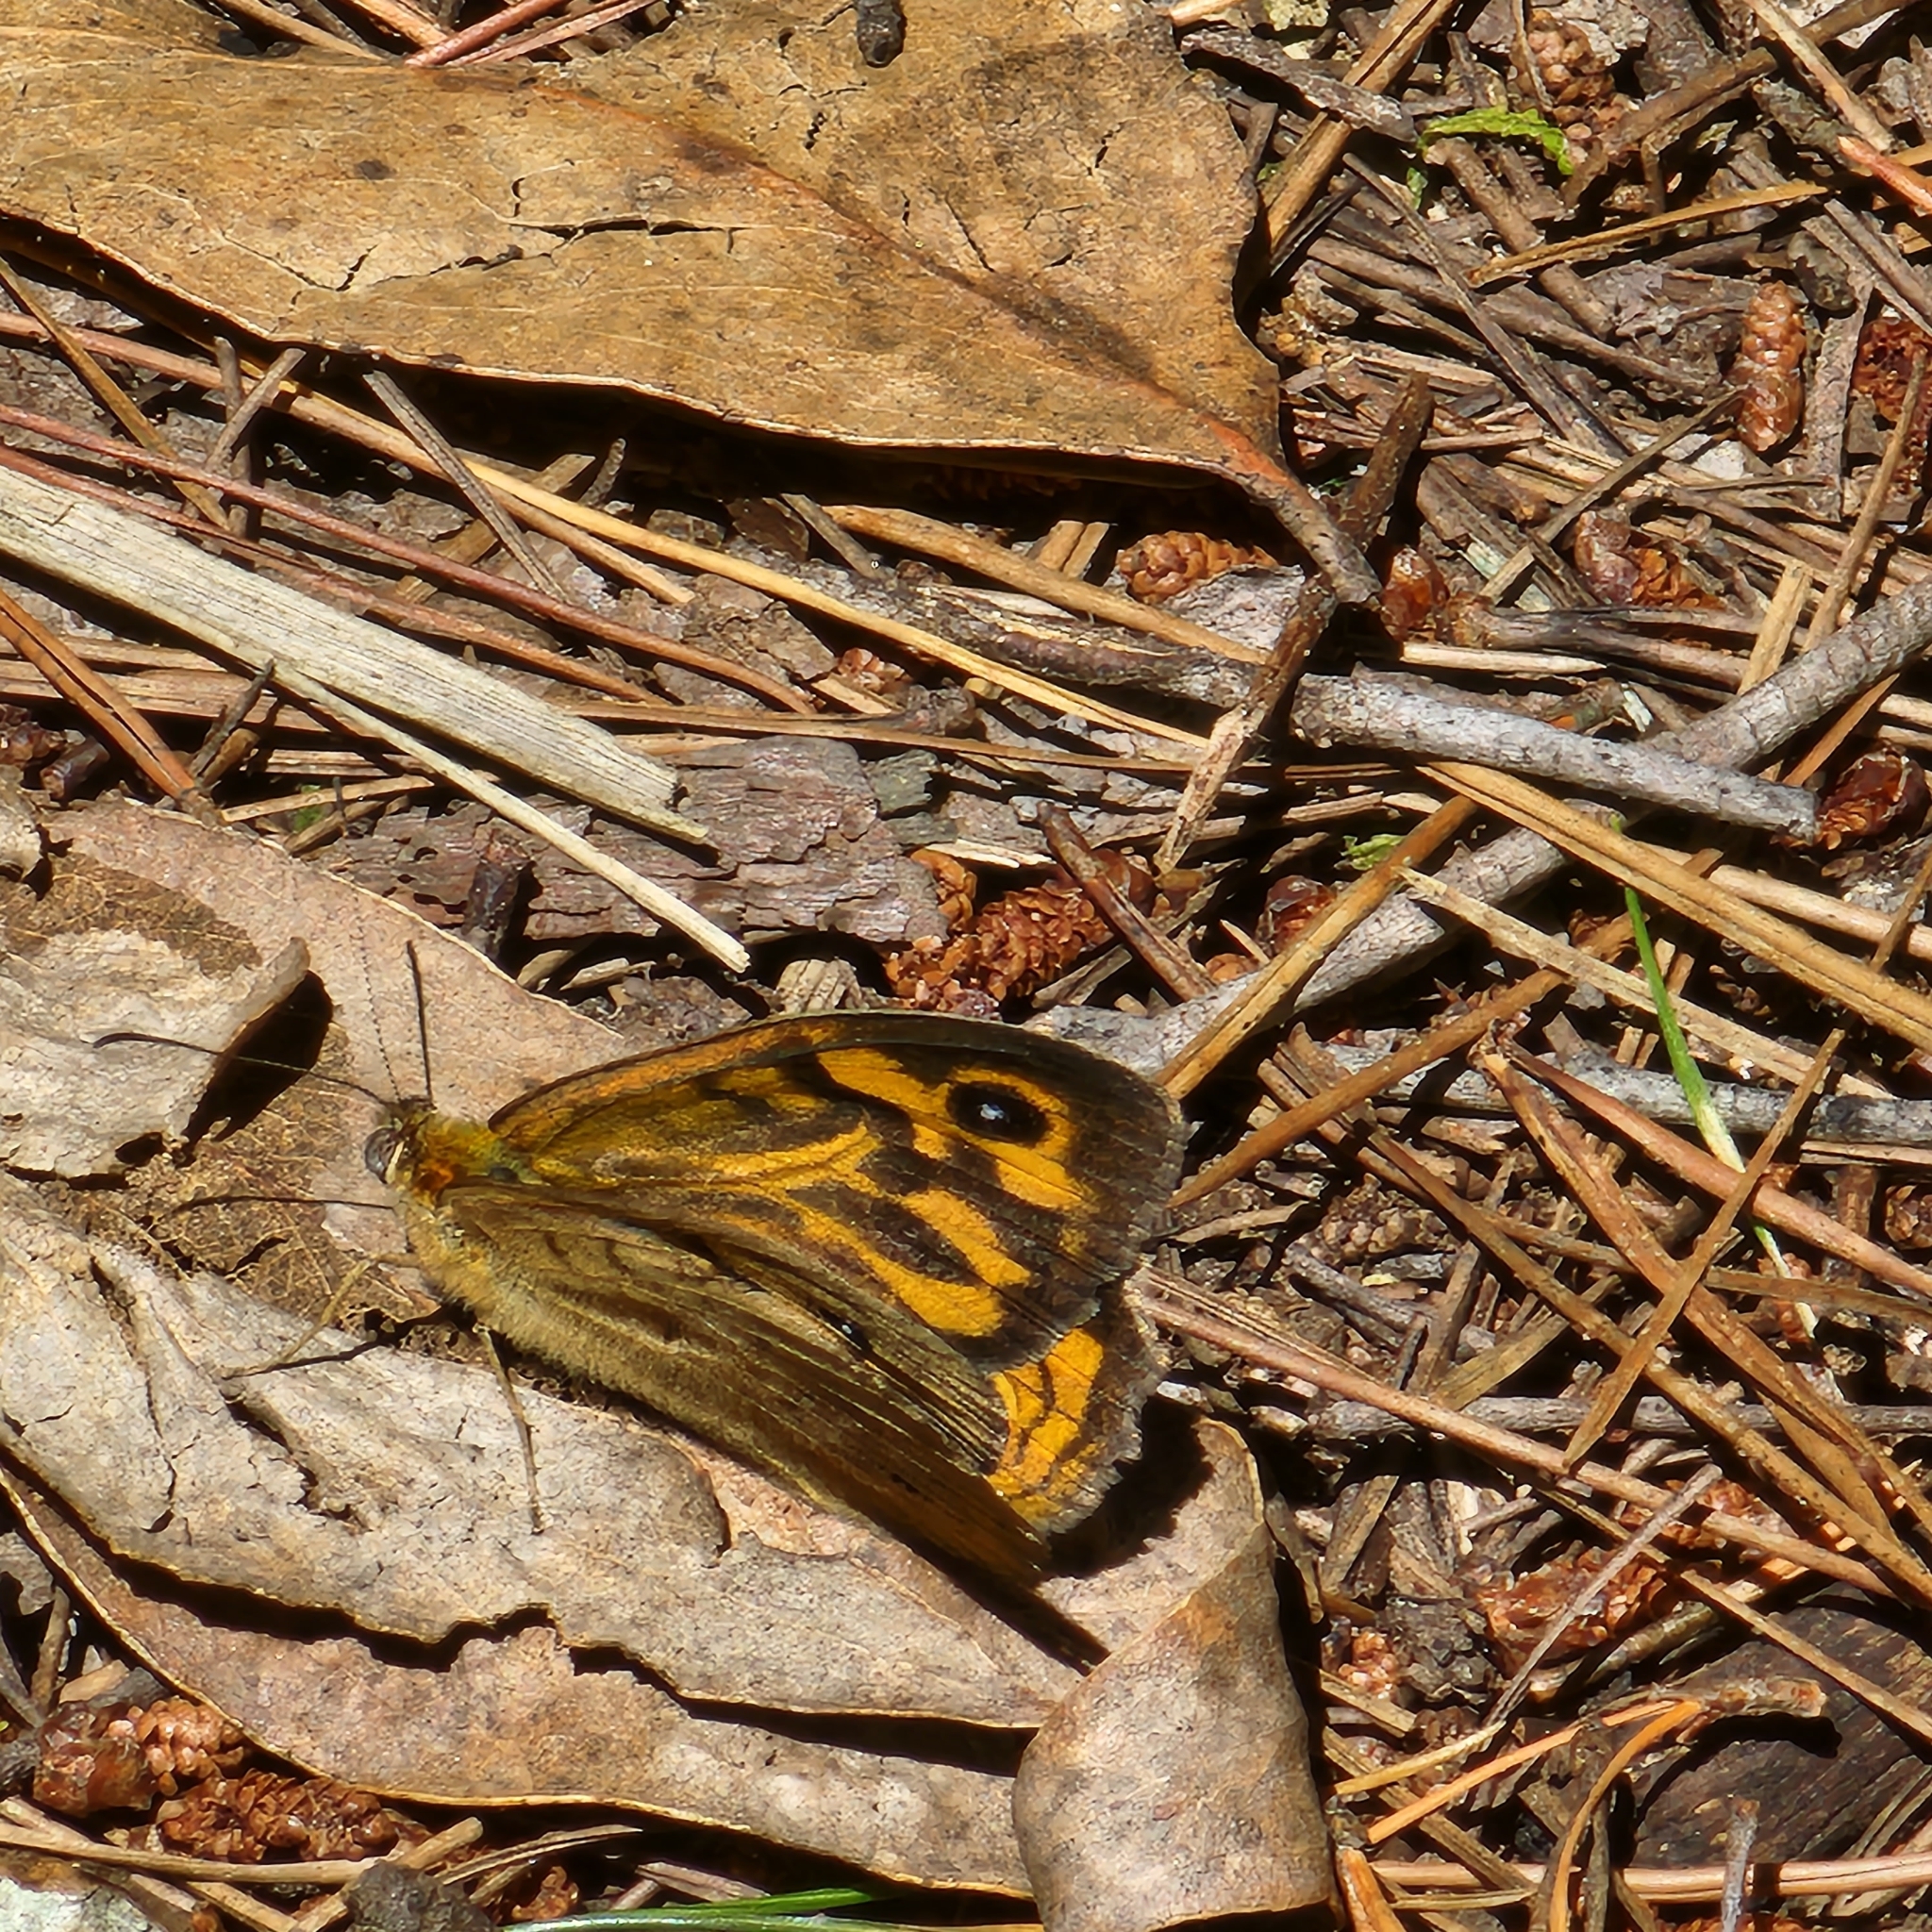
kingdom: Animalia
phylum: Arthropoda
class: Insecta
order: Lepidoptera
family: Nymphalidae
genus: Heteronympha
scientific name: Heteronympha merope
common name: Common brown
